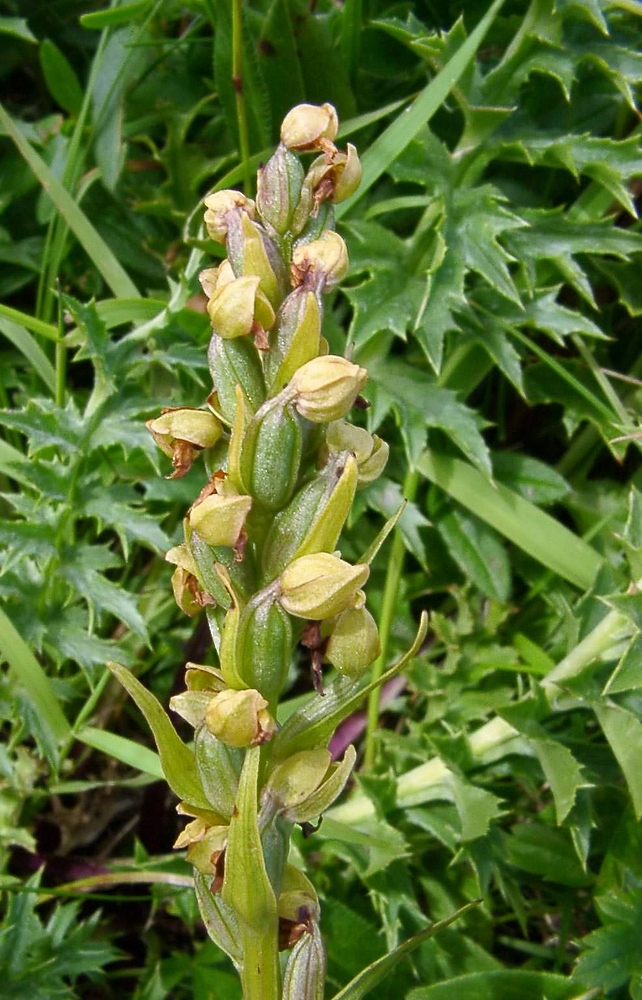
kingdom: Plantae
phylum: Tracheophyta
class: Liliopsida
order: Asparagales
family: Orchidaceae
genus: Dactylorhiza
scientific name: Dactylorhiza viridis
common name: Longbract frog orchid
